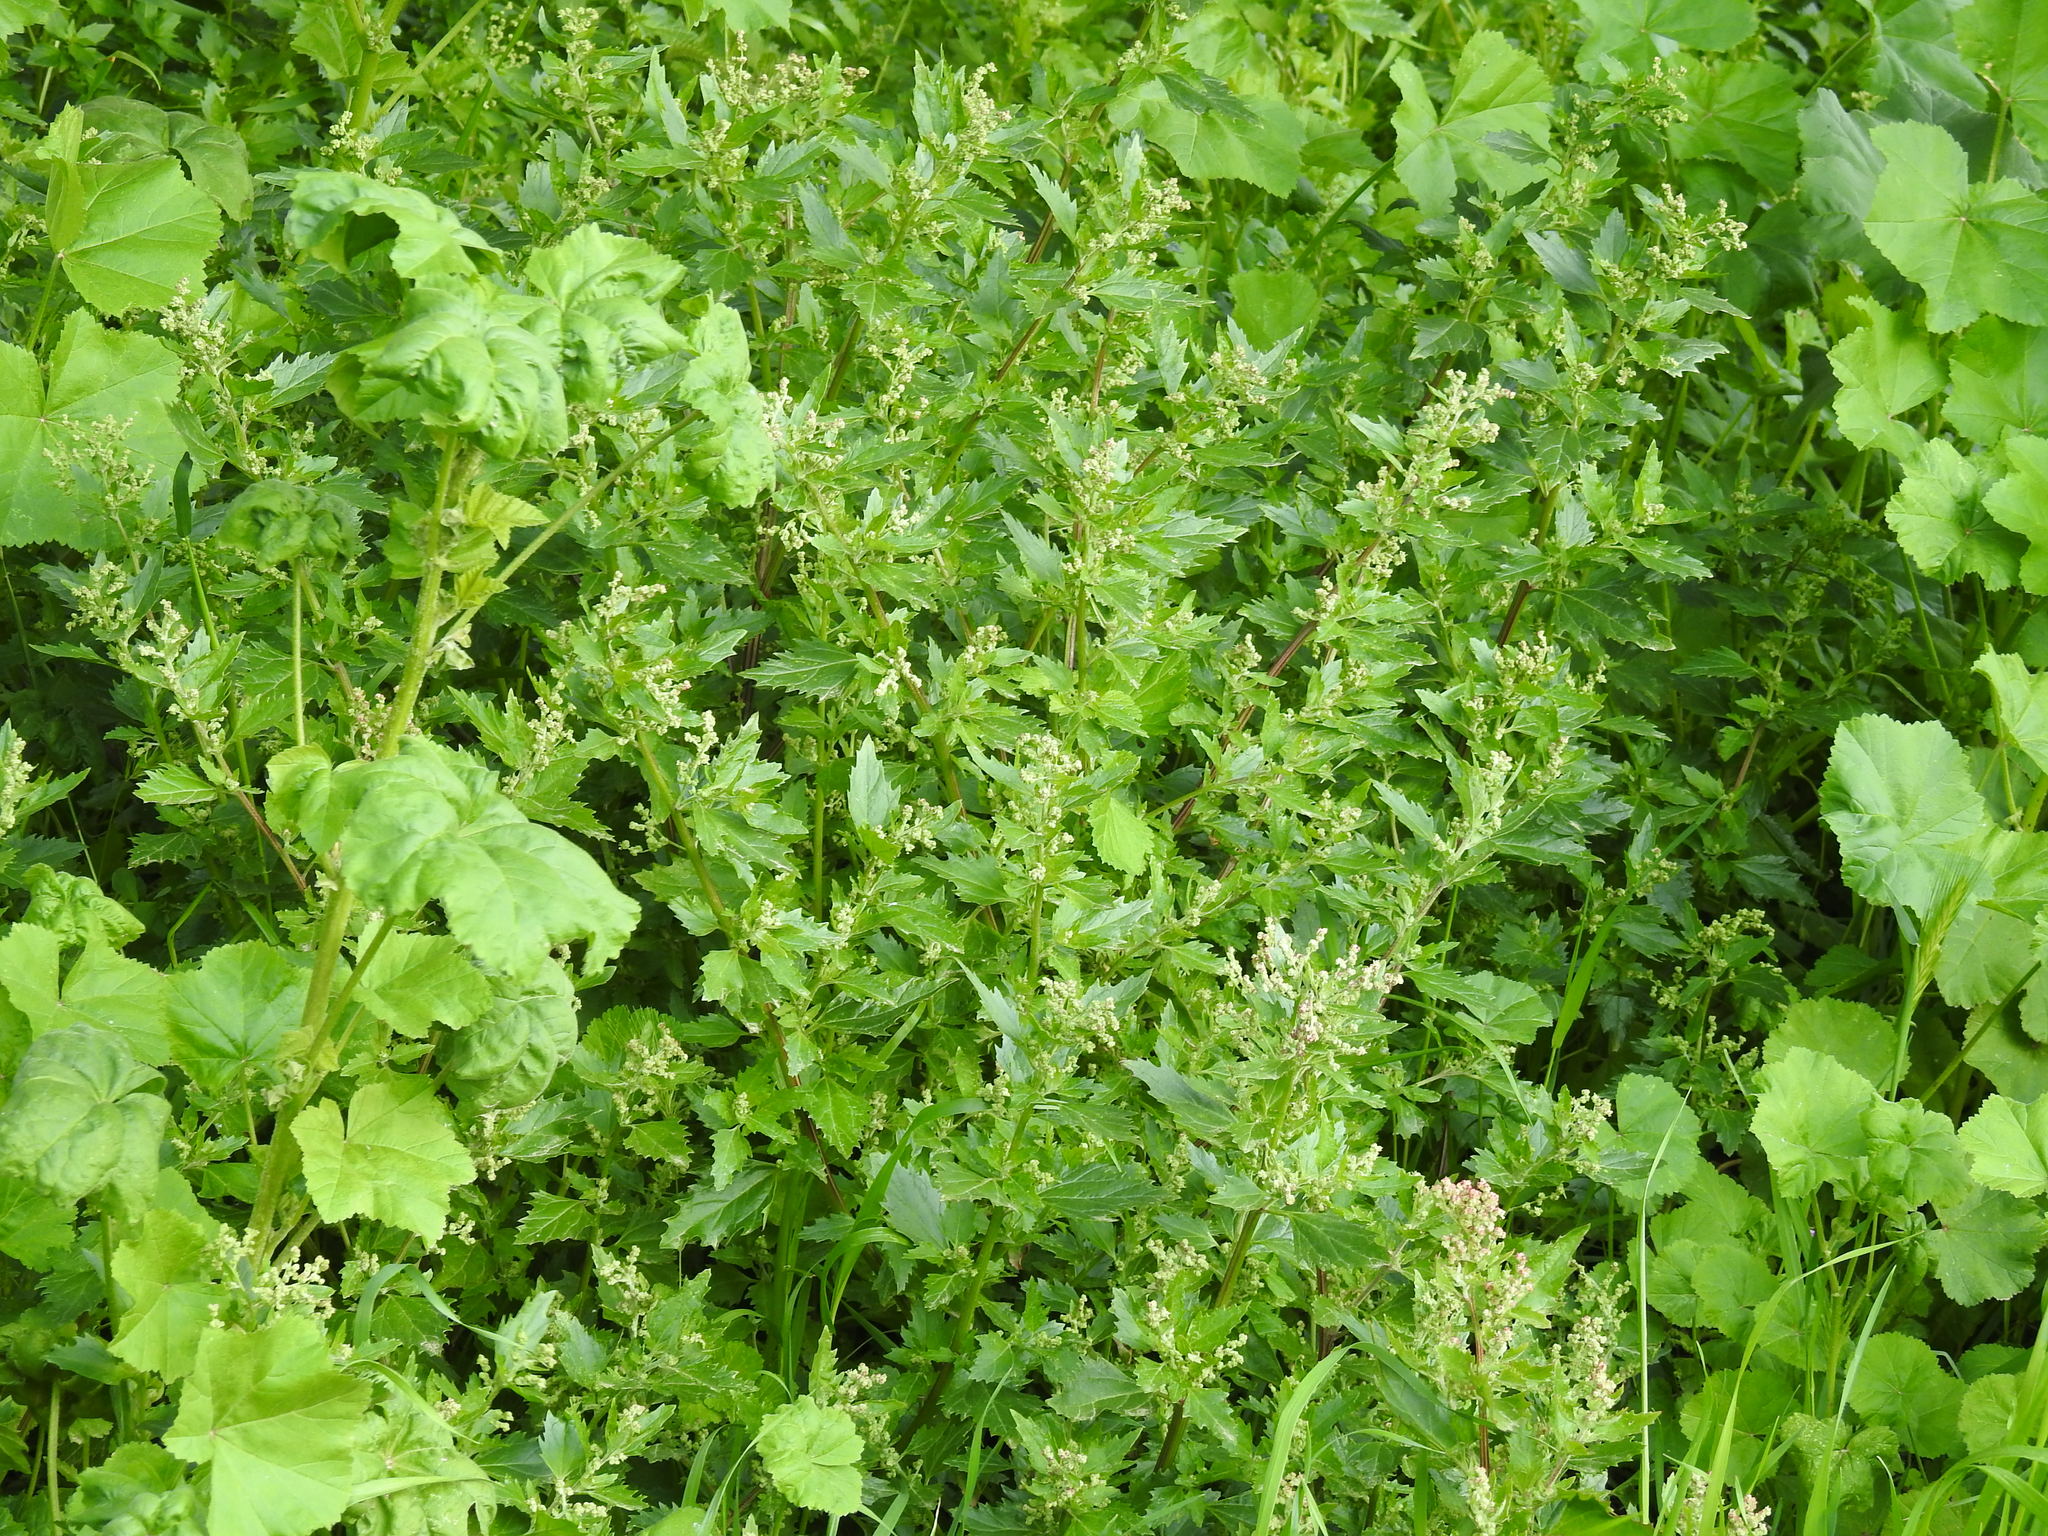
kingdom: Plantae
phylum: Tracheophyta
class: Magnoliopsida
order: Caryophyllales
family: Amaranthaceae
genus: Chenopodiastrum
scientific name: Chenopodiastrum murale
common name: Sowbane
